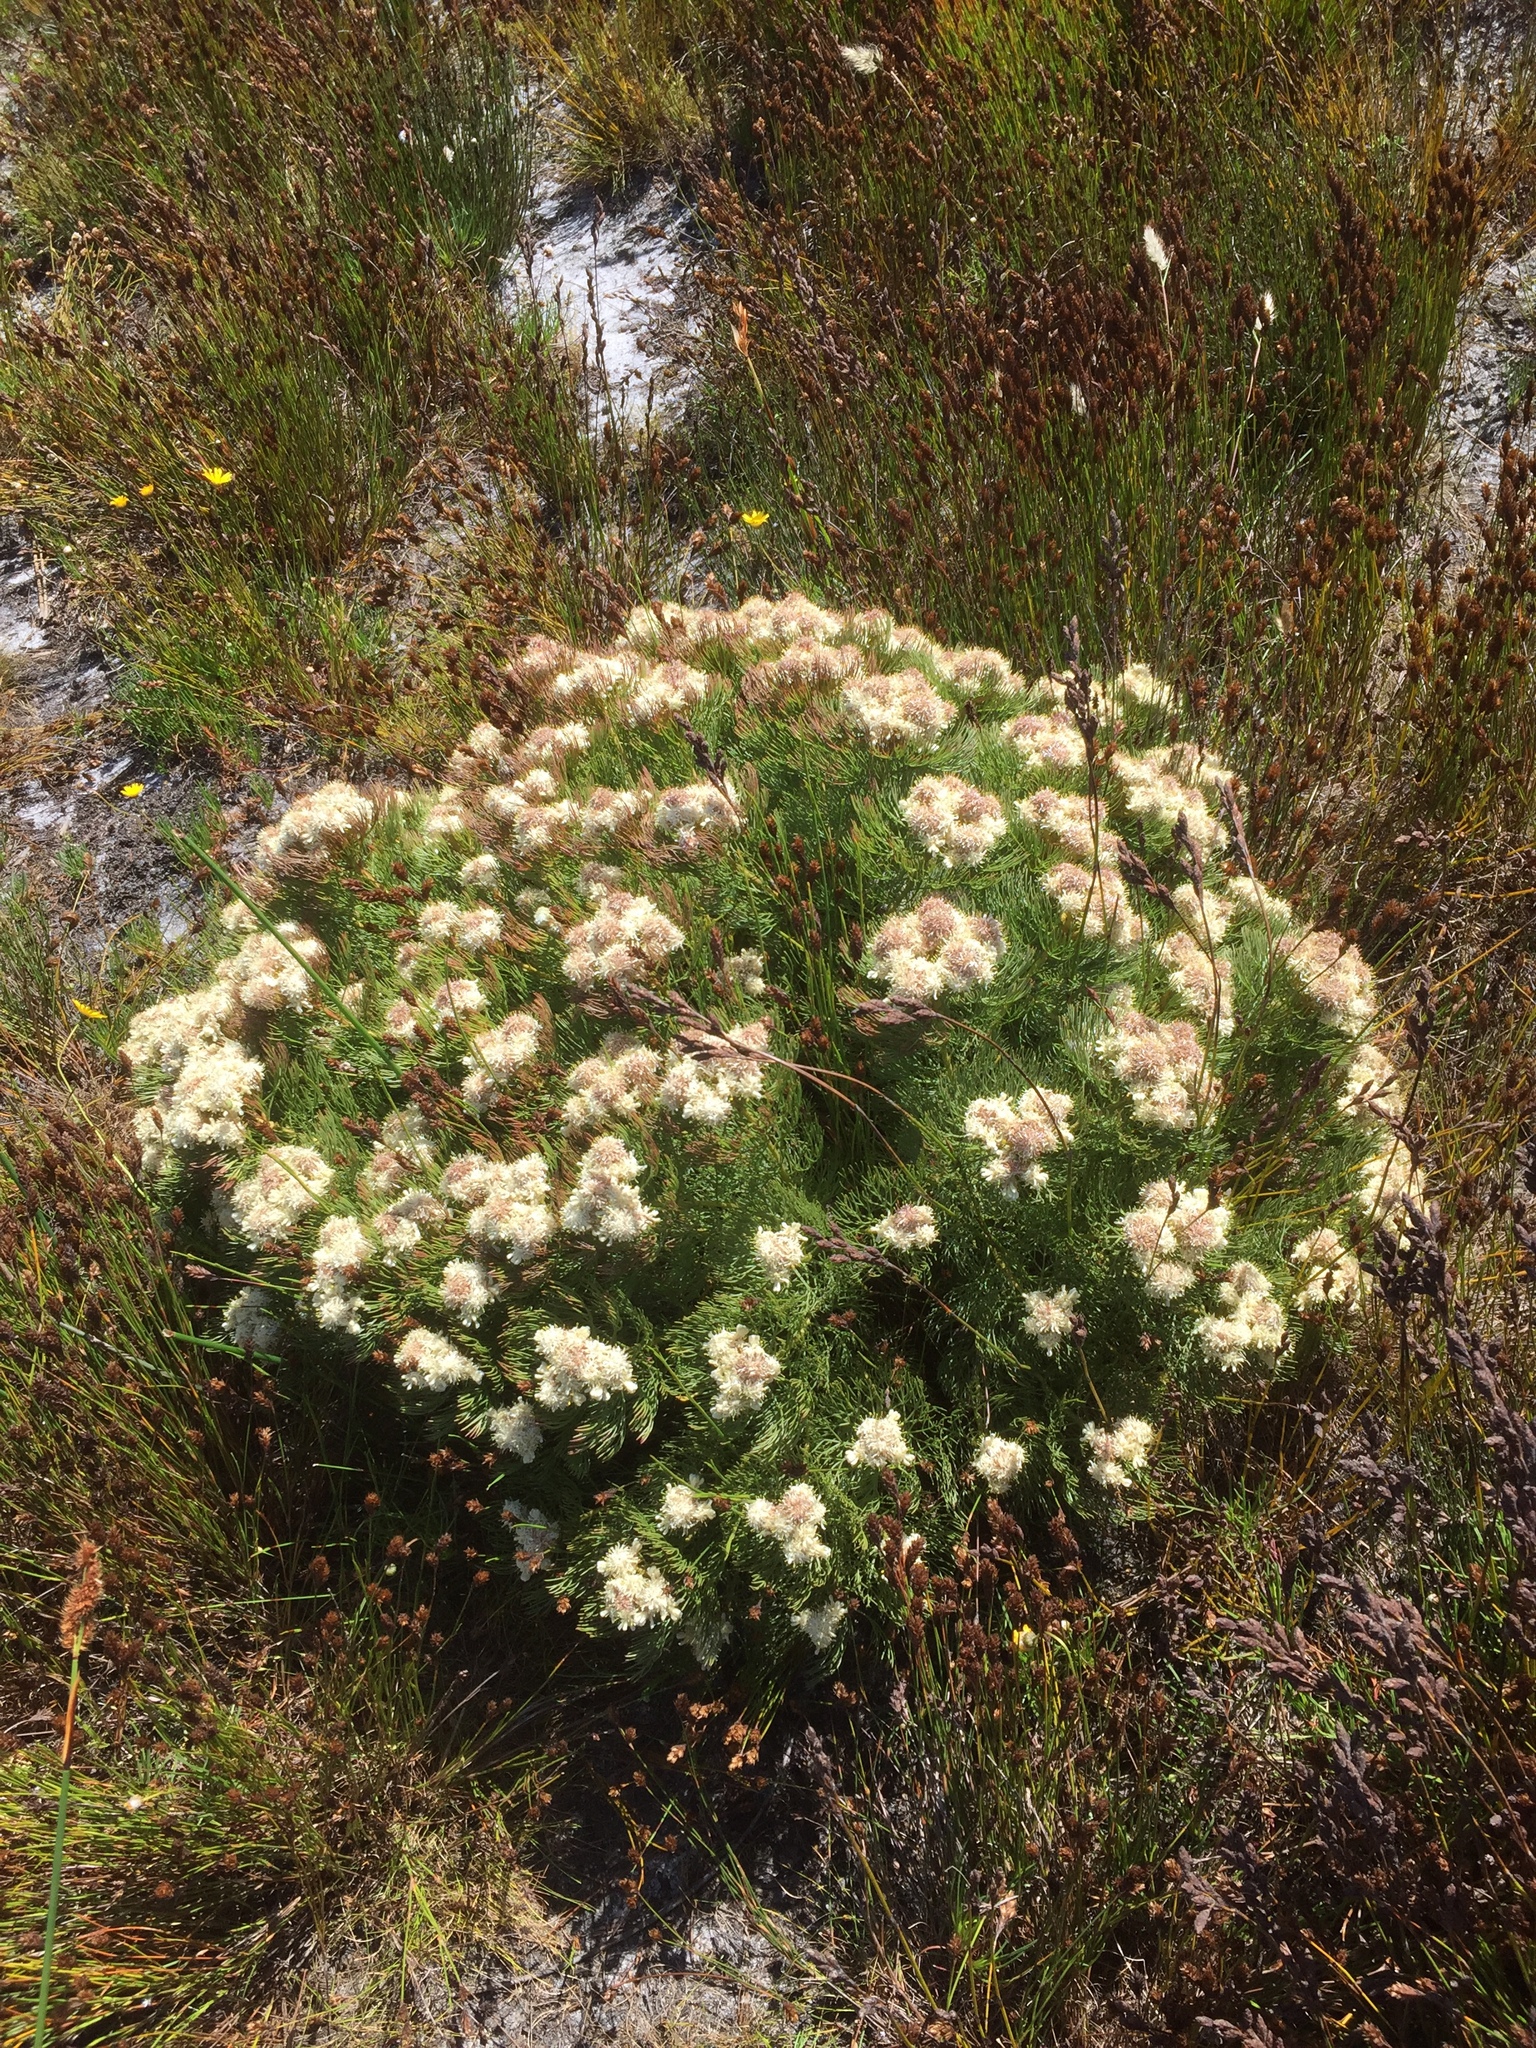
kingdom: Plantae
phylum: Tracheophyta
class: Magnoliopsida
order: Proteales
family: Proteaceae
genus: Serruria
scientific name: Serruria glomerata
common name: Cluster spiderhead
